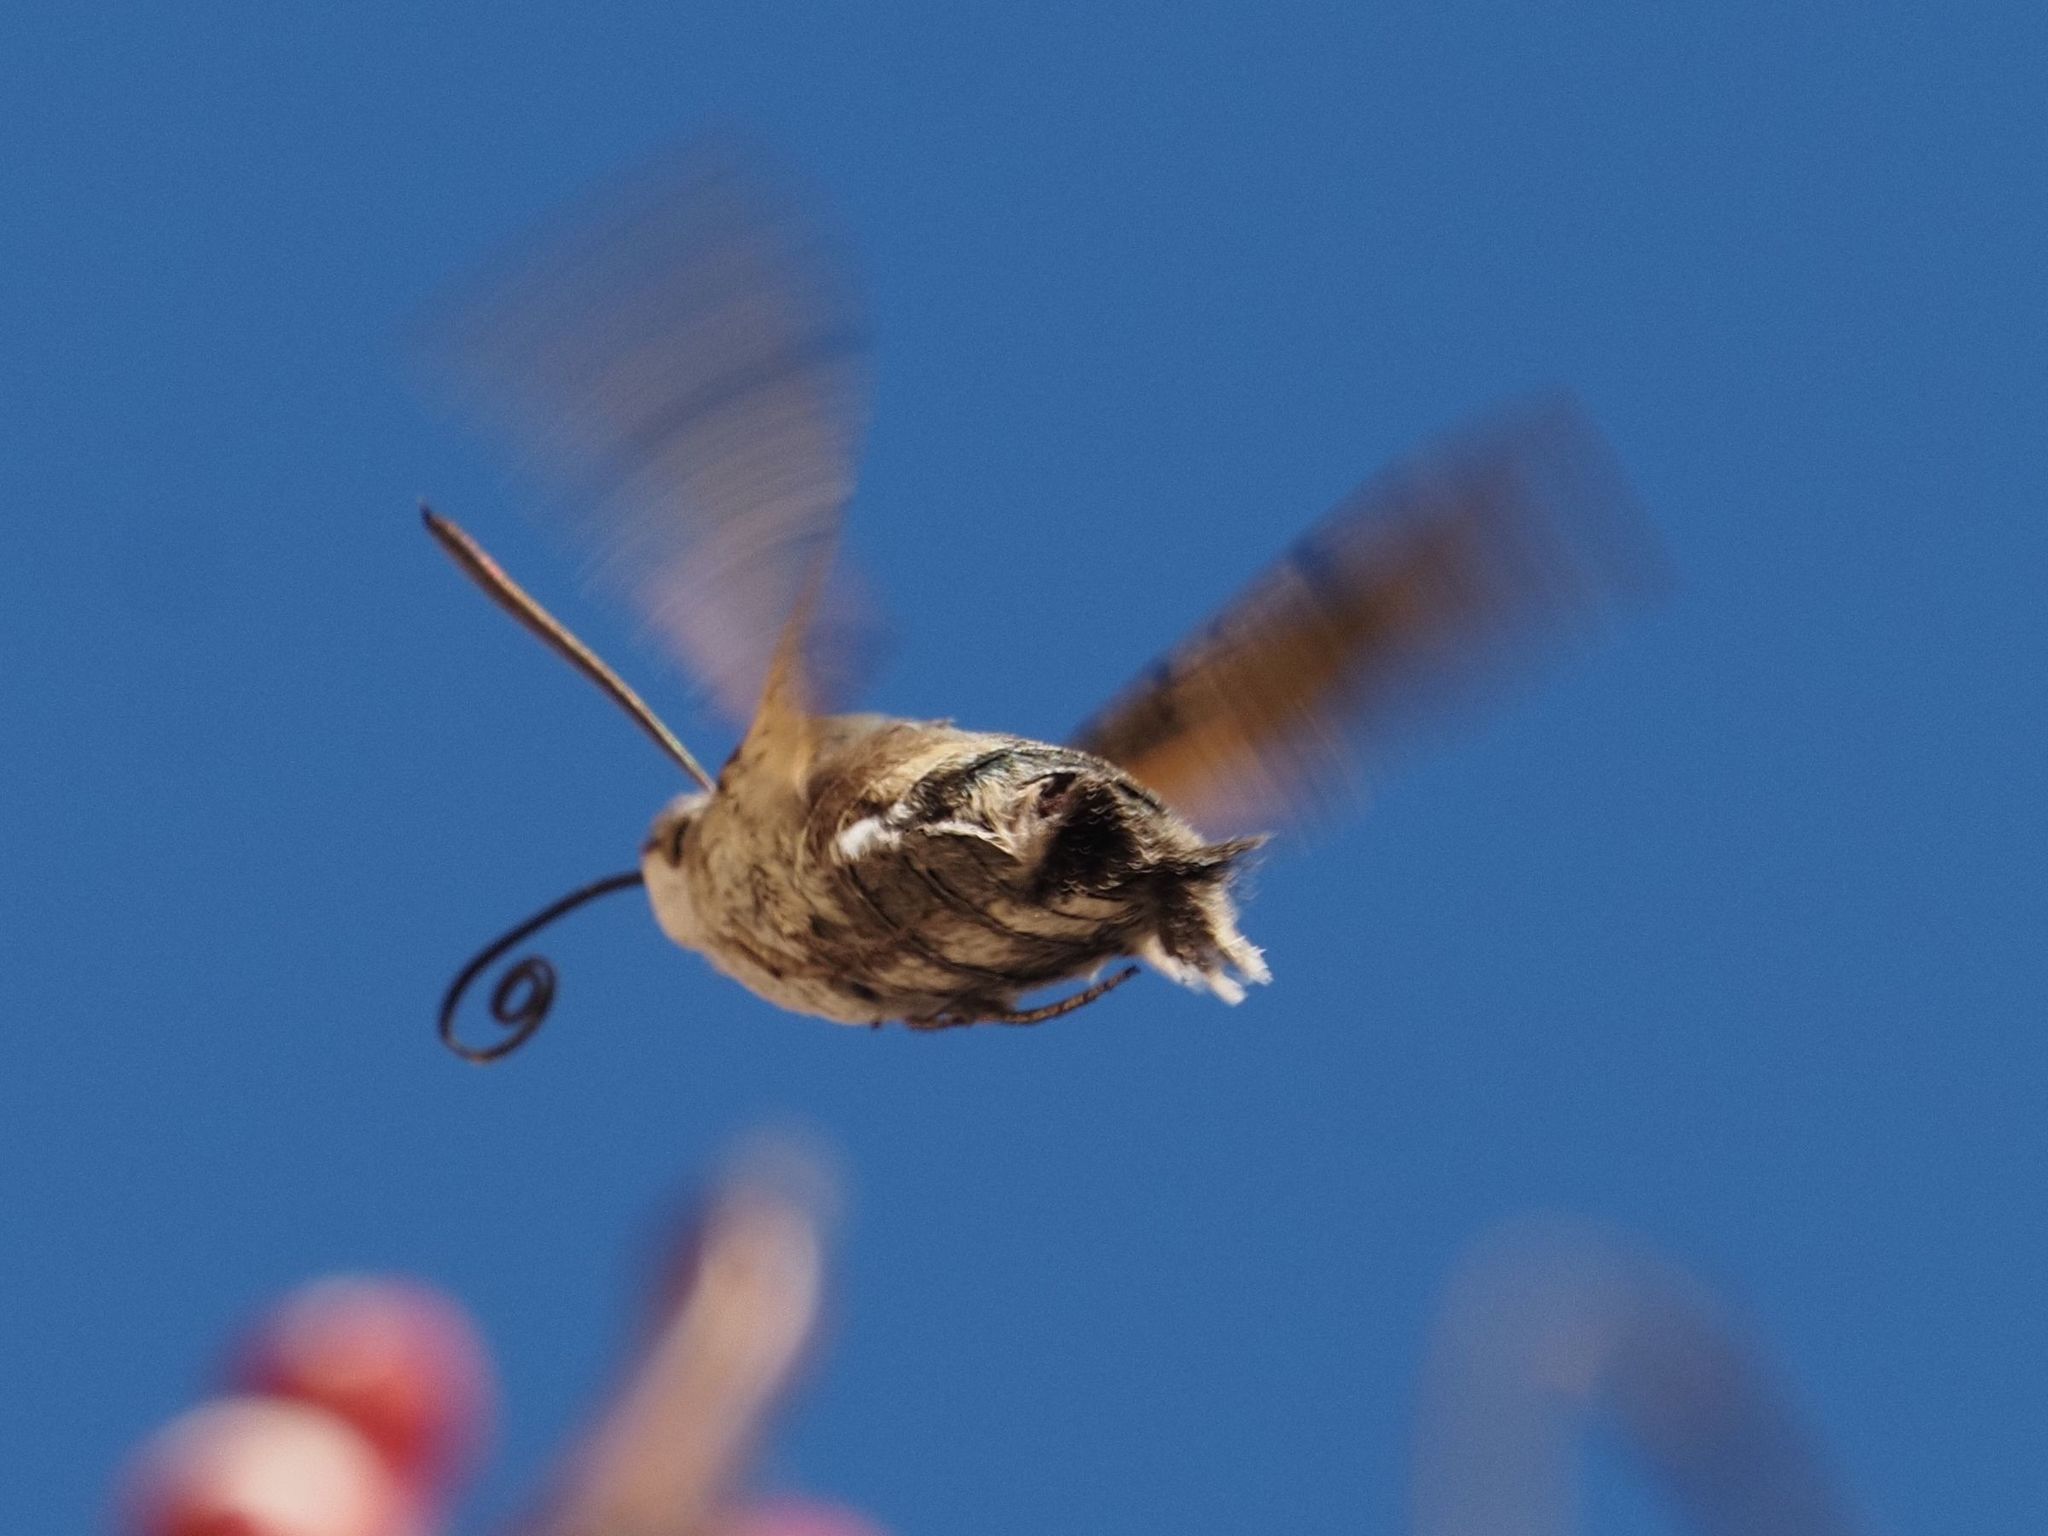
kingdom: Animalia
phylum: Arthropoda
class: Insecta
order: Lepidoptera
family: Sphingidae
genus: Macroglossum
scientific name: Macroglossum stellatarum
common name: Humming-bird hawk-moth
